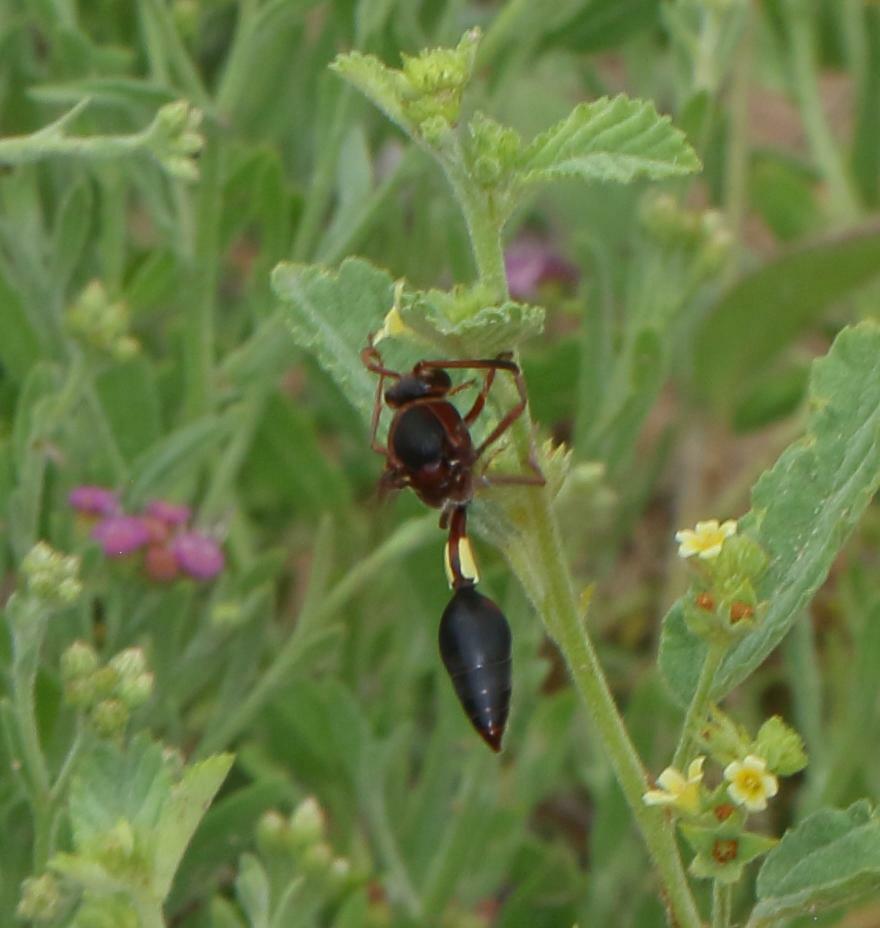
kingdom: Animalia
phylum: Arthropoda
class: Insecta
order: Hymenoptera
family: Eumenidae
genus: Delta
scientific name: Delta fenestrale
